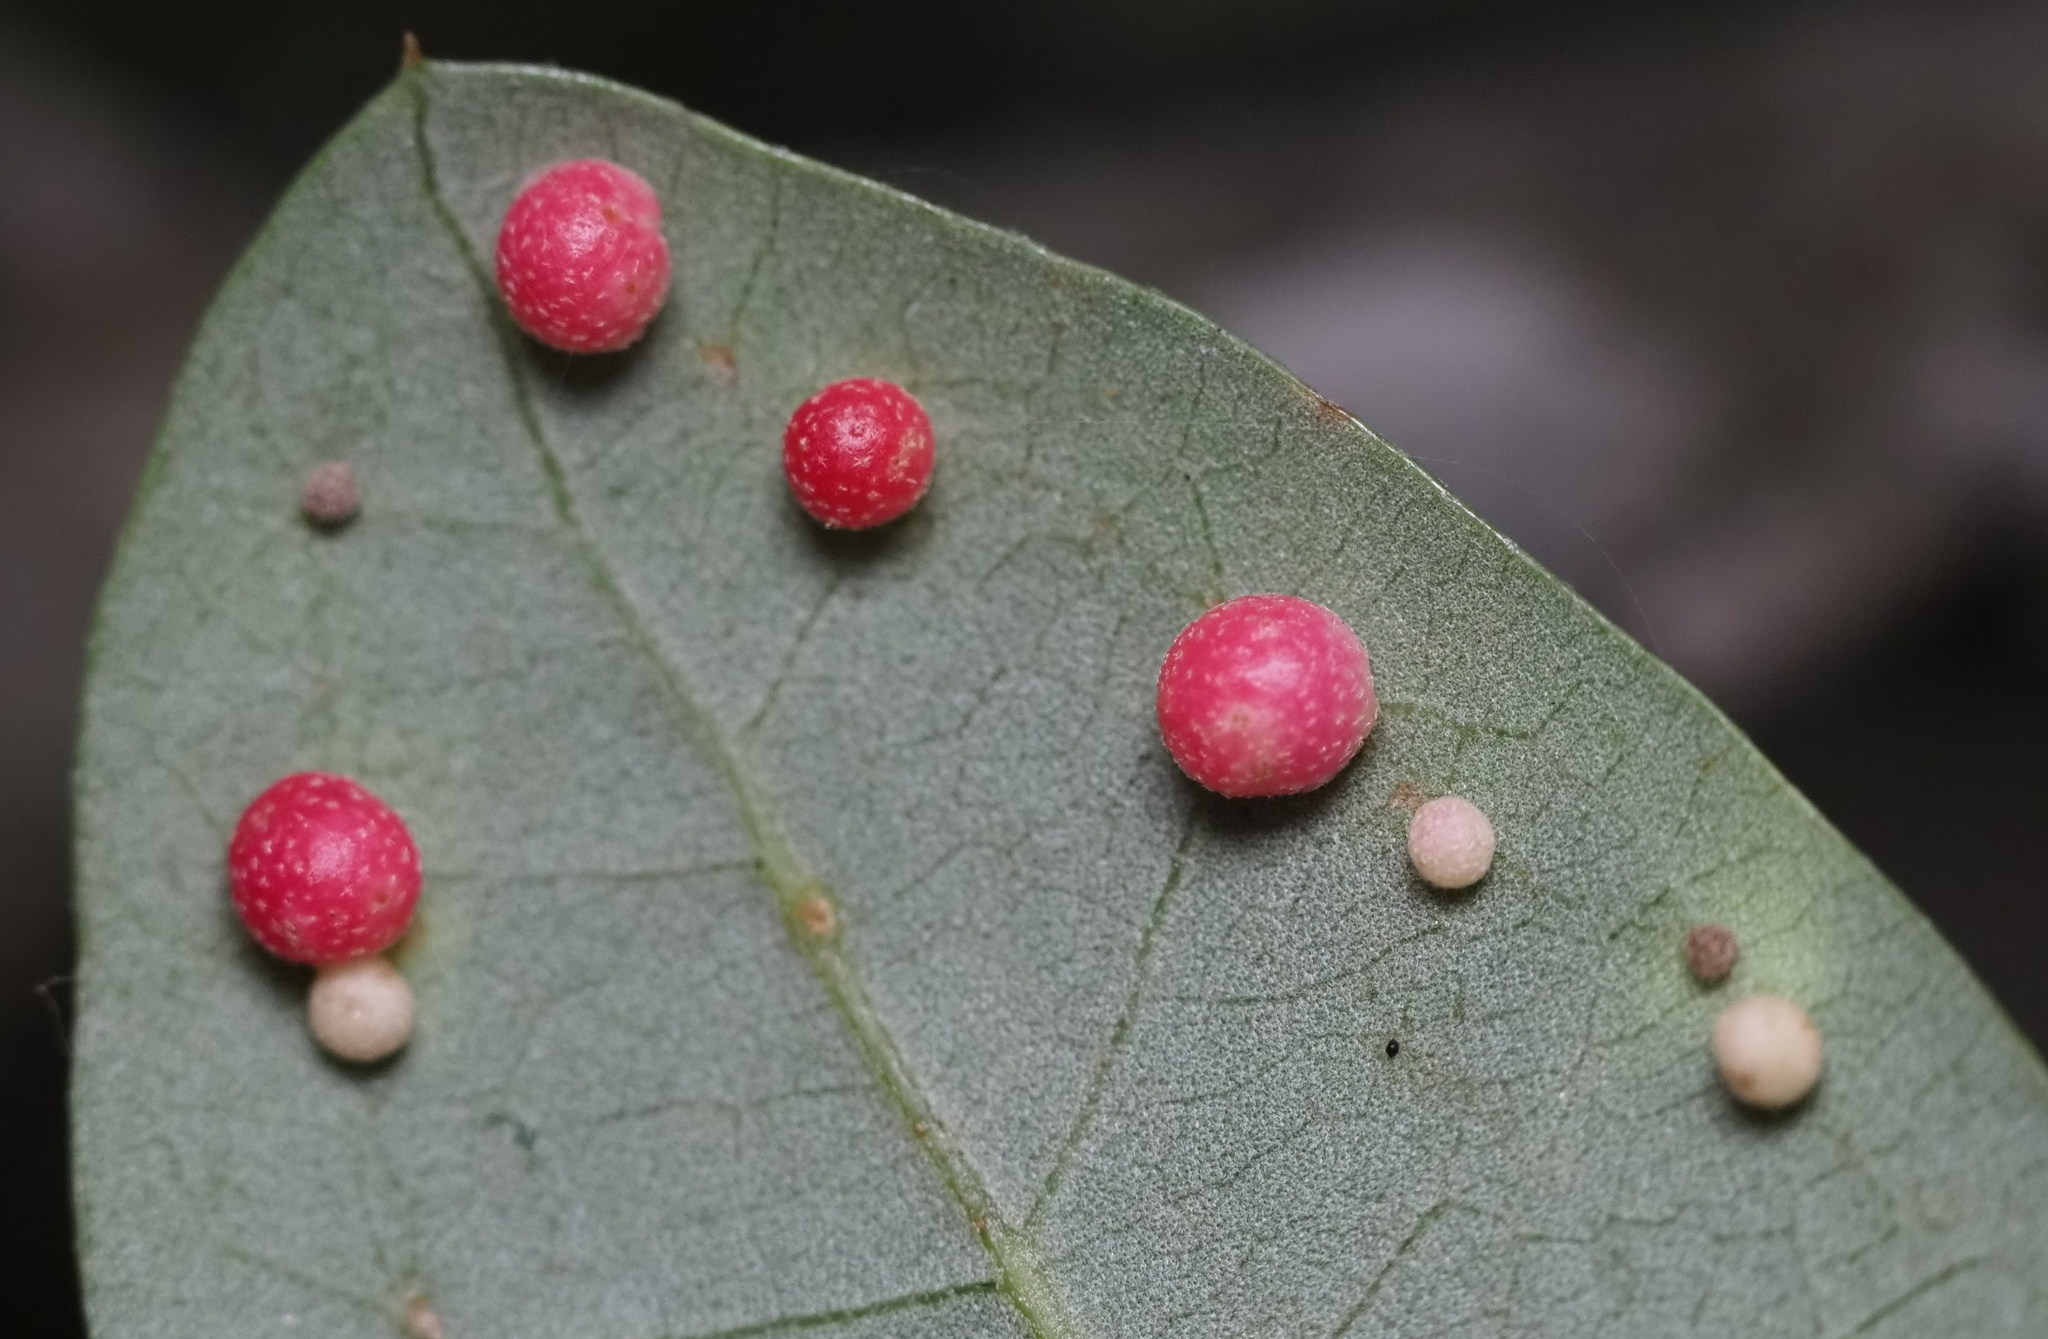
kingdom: Animalia
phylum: Arthropoda
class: Insecta
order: Hymenoptera
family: Cynipidae
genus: Belonocnema
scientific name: Belonocnema kinseyi
